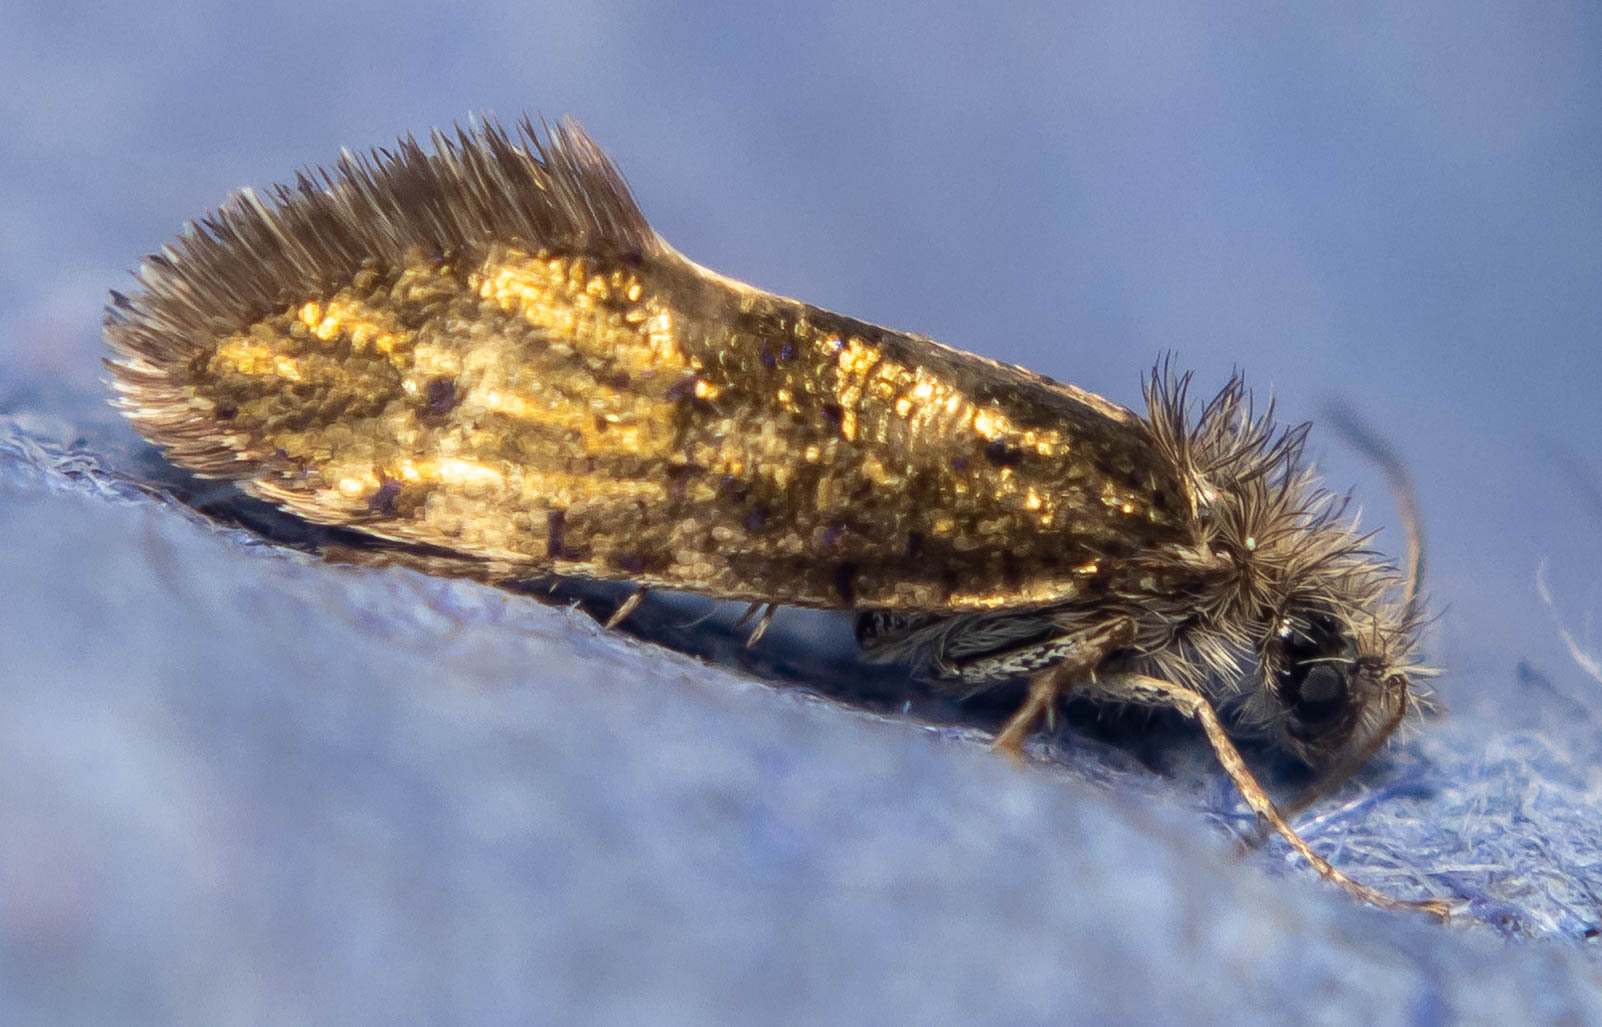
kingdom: Animalia
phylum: Arthropoda
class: Insecta
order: Lepidoptera
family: Eriocraniidae
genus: Dyseriocrania
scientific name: Dyseriocrania subpurpurella
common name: Common oak purple
